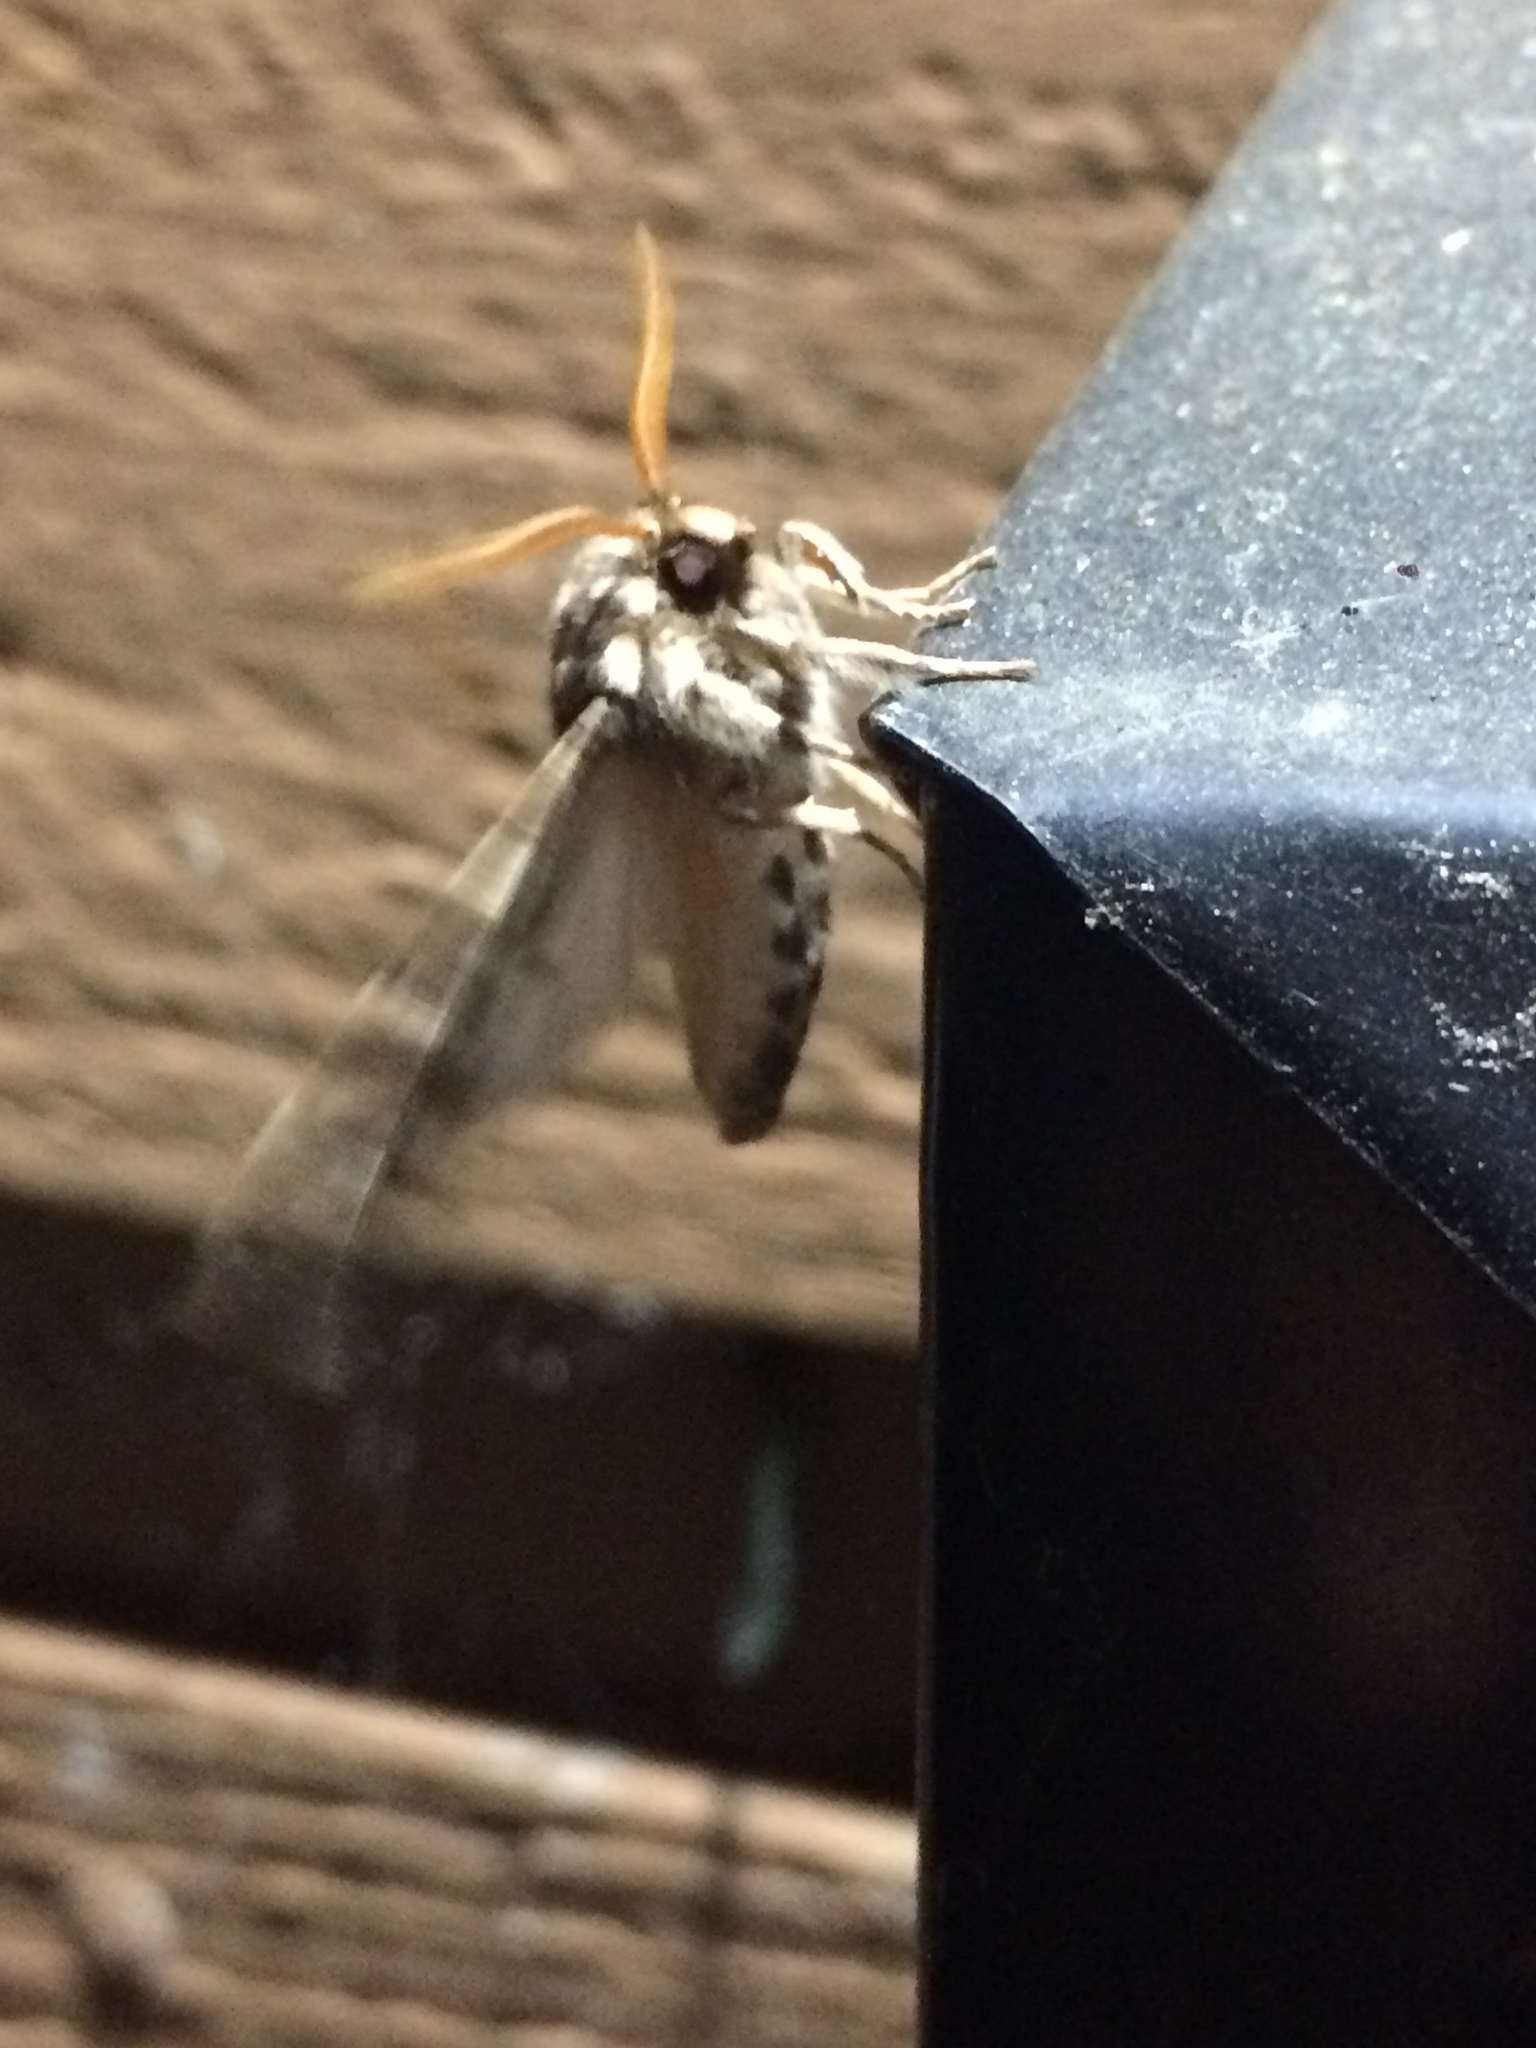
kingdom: Animalia
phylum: Arthropoda
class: Insecta
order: Lepidoptera
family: Erebidae
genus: Lophocampa
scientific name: Lophocampa argentata
